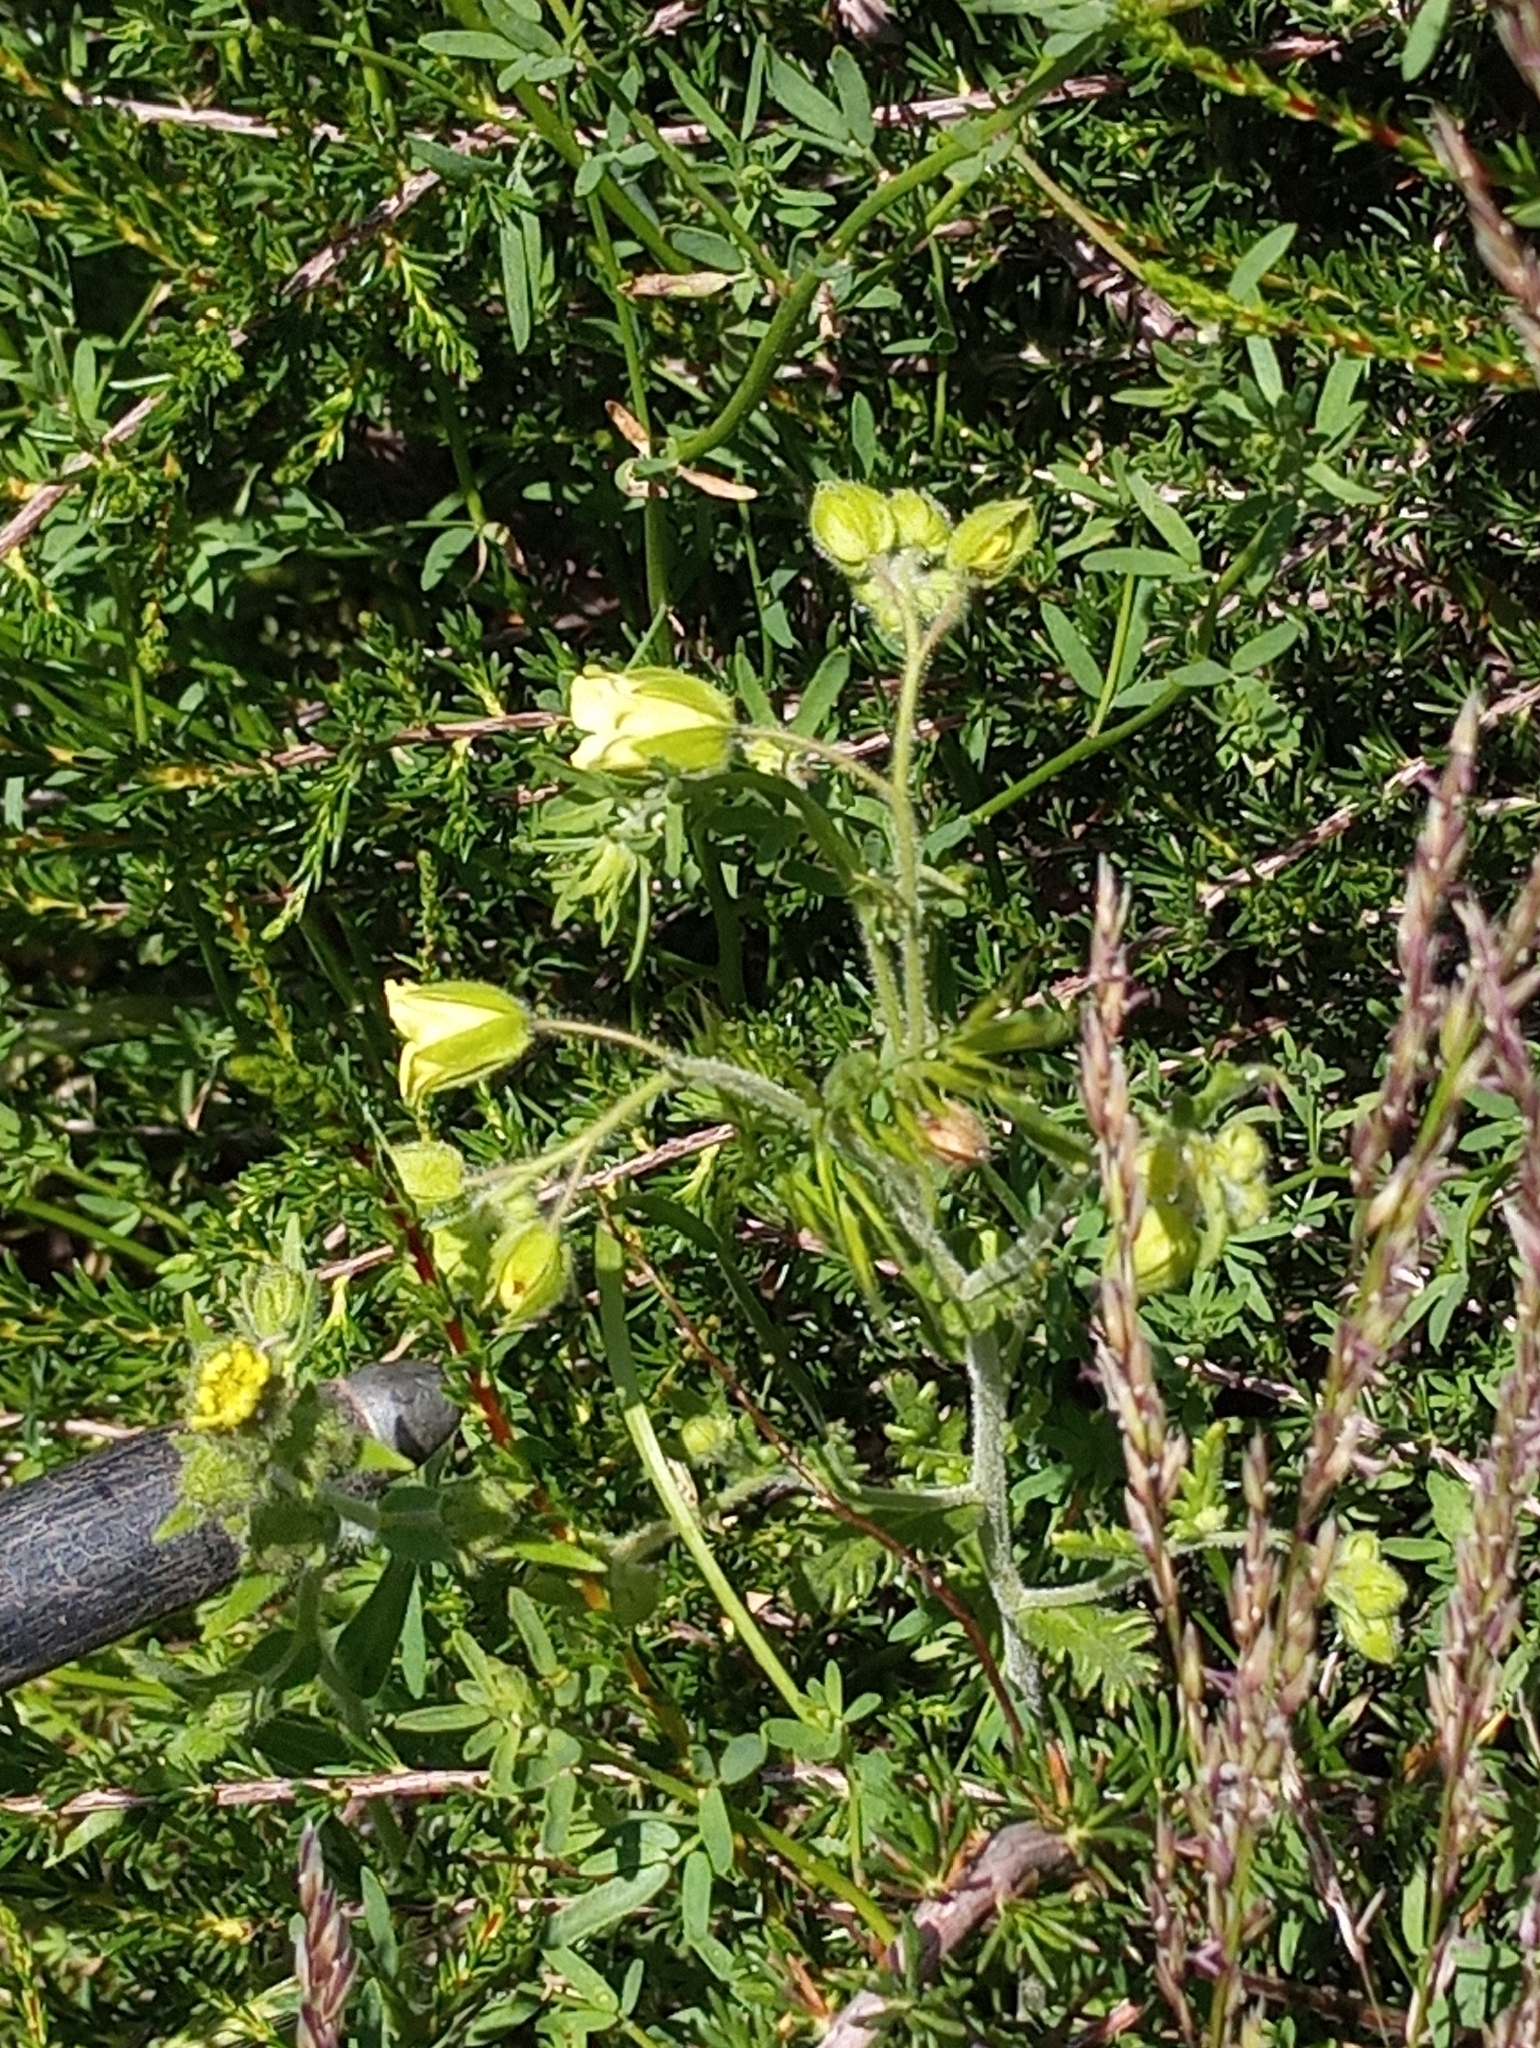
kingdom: Plantae
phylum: Tracheophyta
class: Magnoliopsida
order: Boraginales
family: Hydrophyllaceae
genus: Emmenanthe
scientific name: Emmenanthe penduliflora
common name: Whispering-bells
